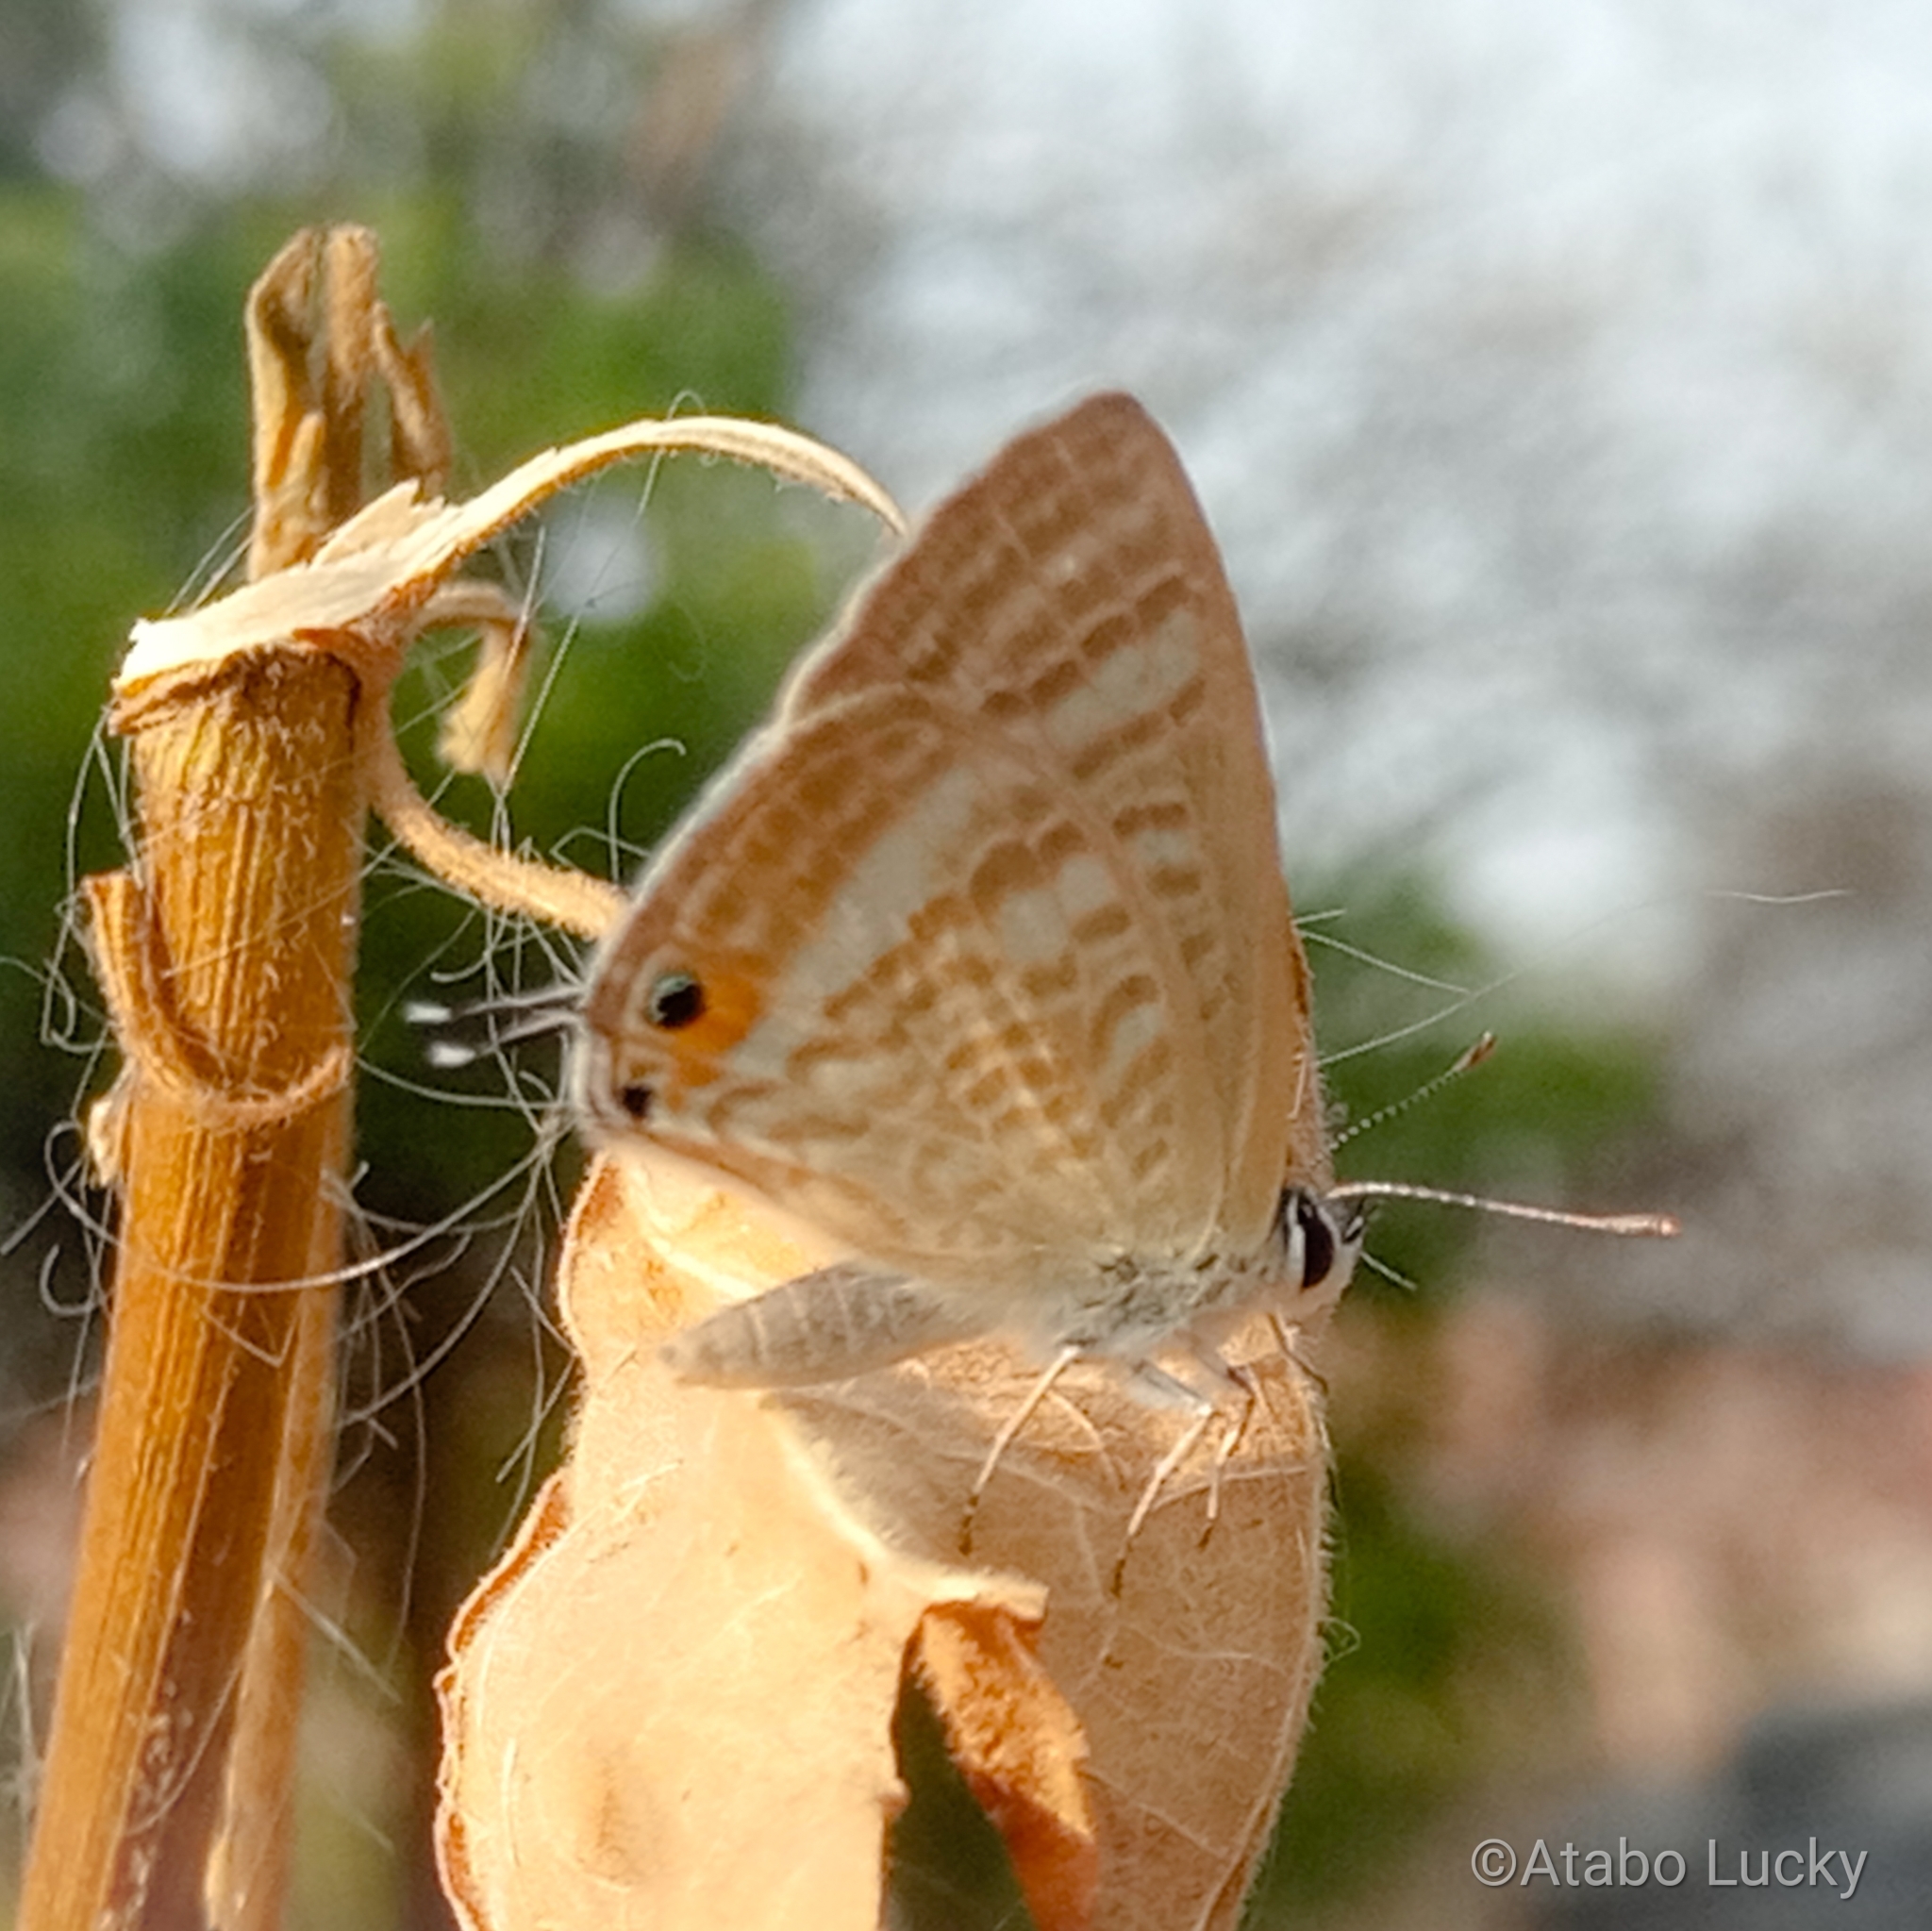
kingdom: Animalia
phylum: Arthropoda
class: Insecta
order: Lepidoptera
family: Lycaenidae
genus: Lampides
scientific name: Lampides boeticus
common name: Long-tailed blue
